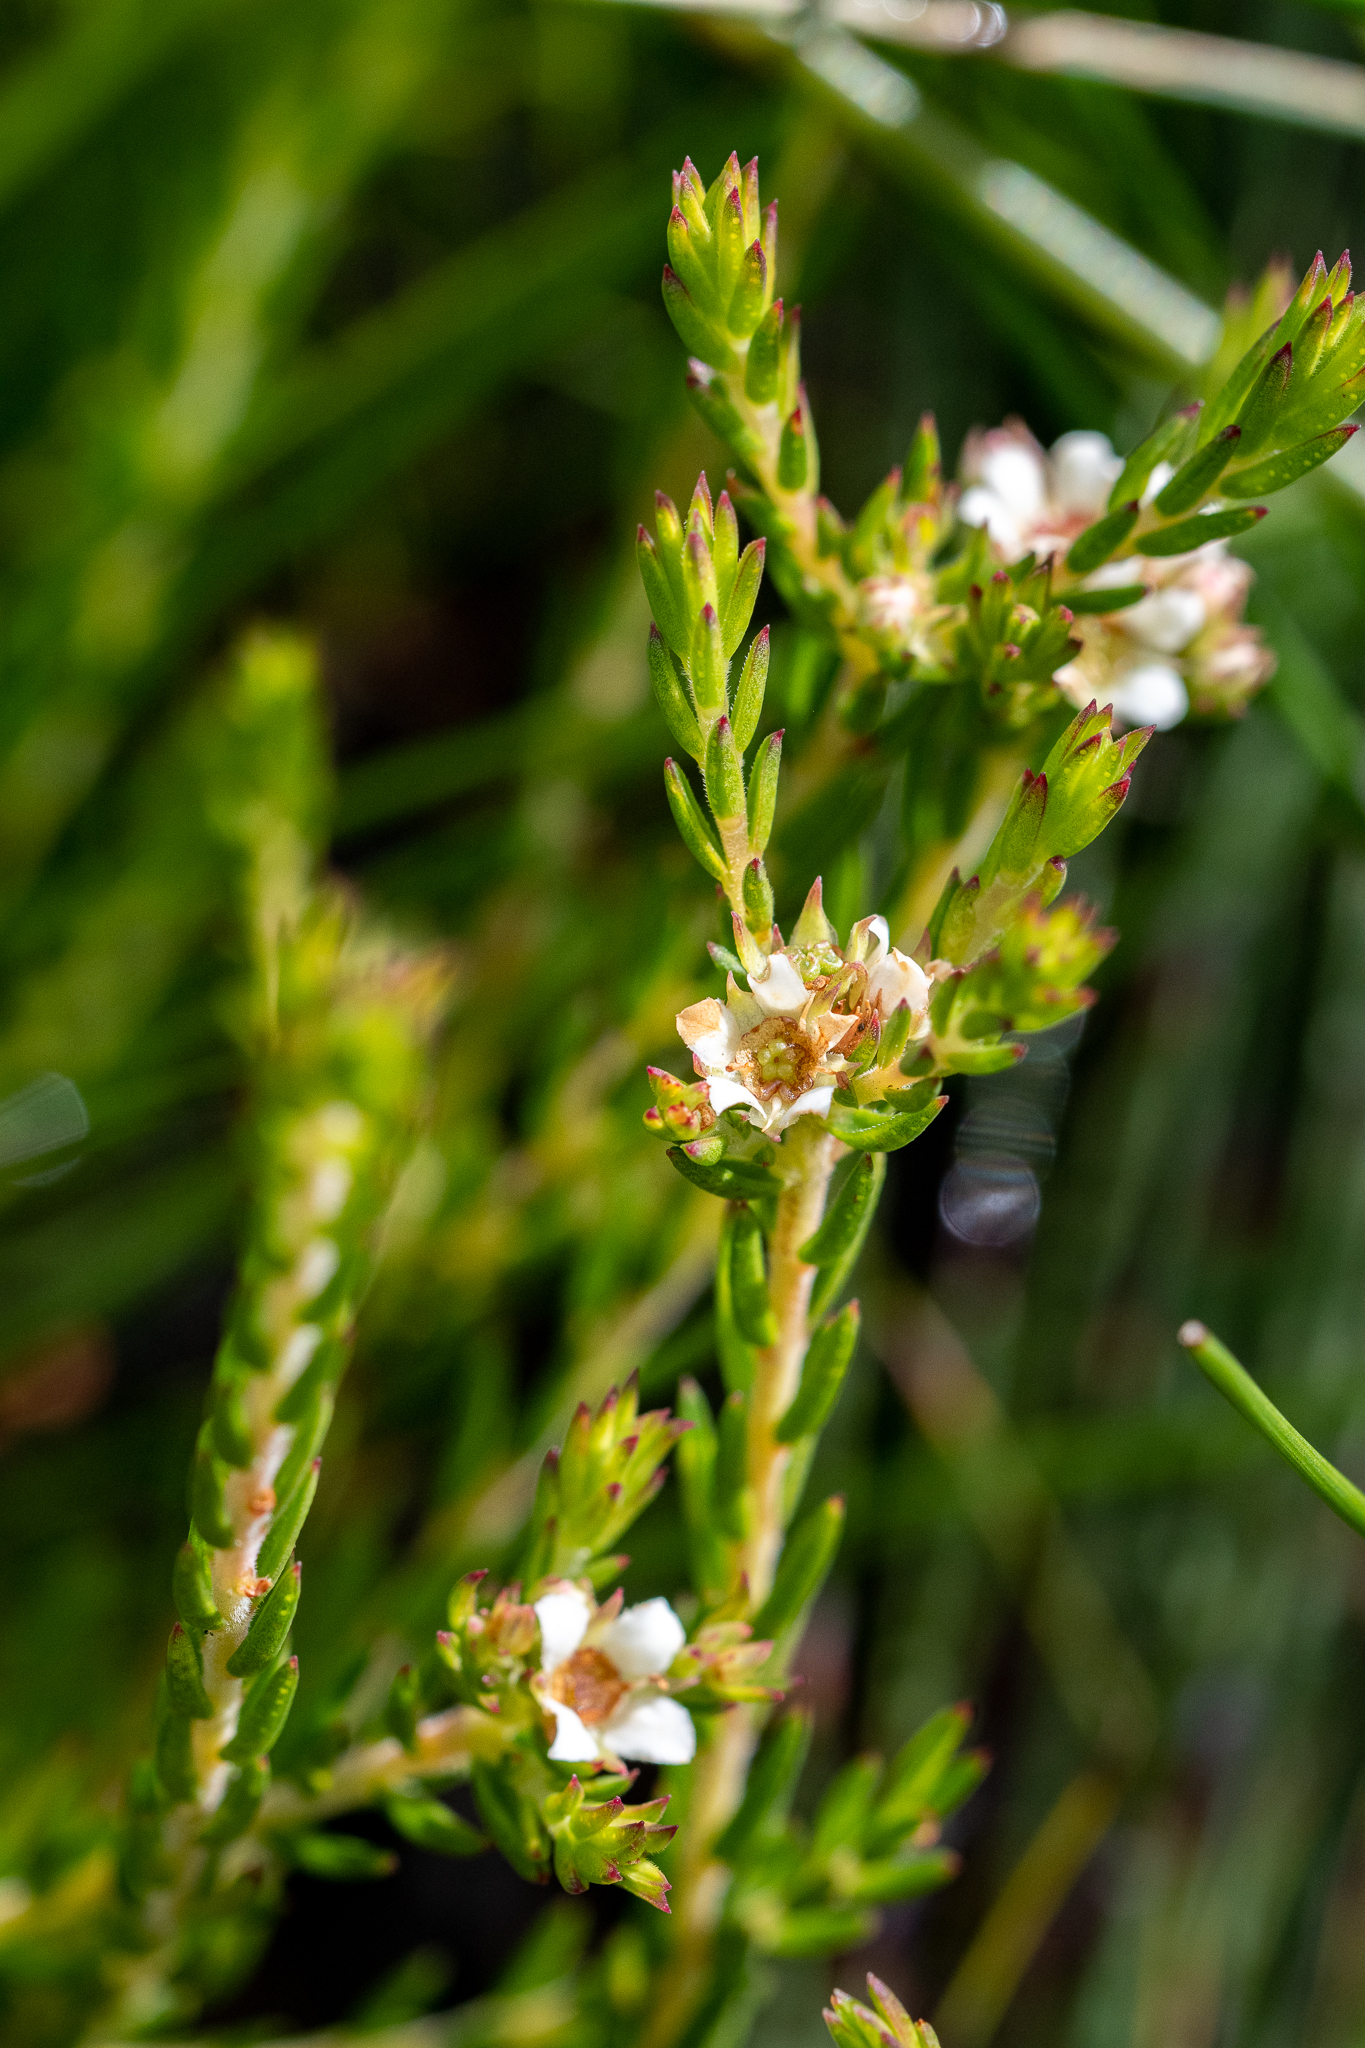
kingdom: Plantae
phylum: Tracheophyta
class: Magnoliopsida
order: Sapindales
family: Rutaceae
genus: Diosma
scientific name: Diosma oppositifolia
